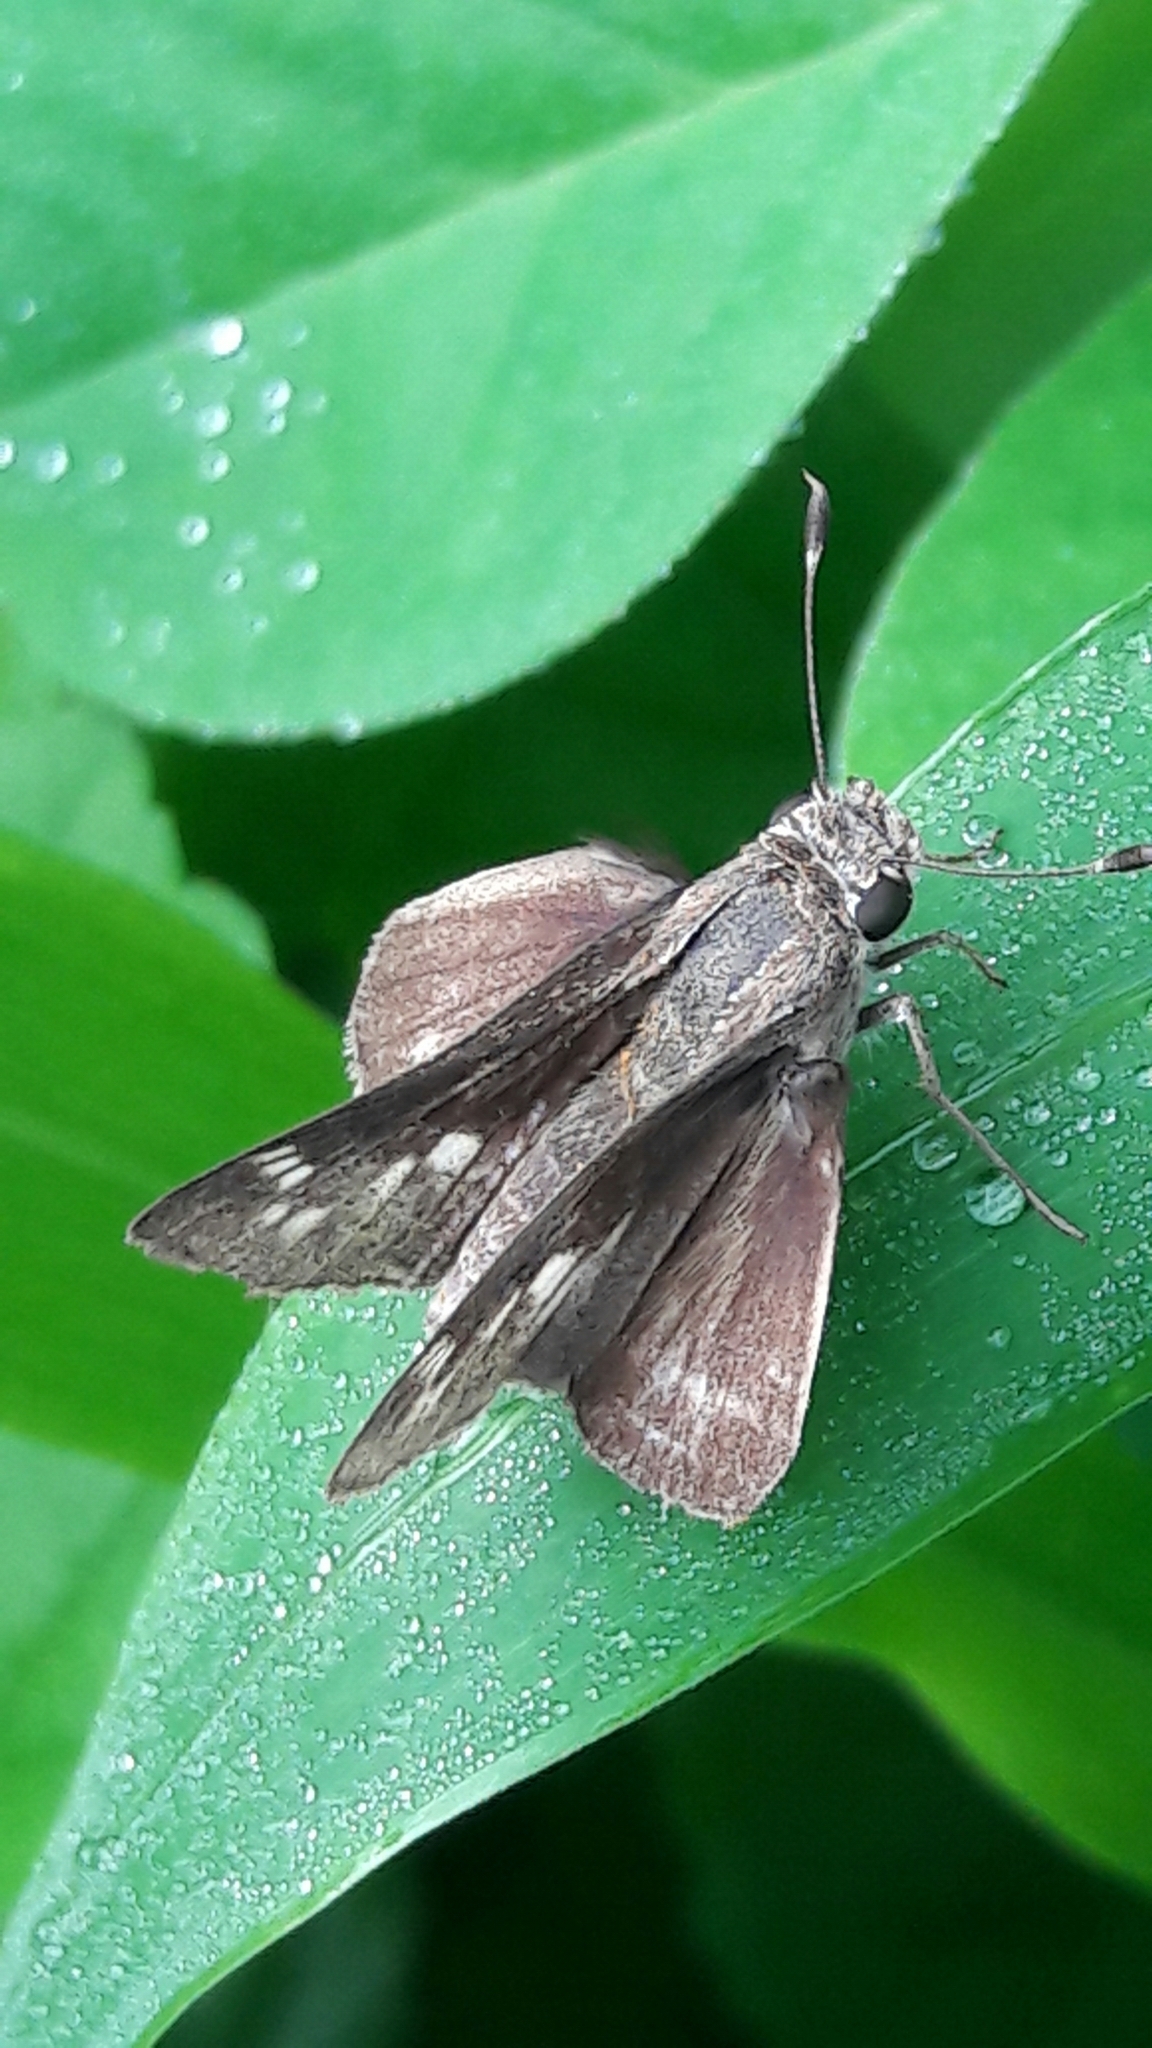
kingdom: Animalia
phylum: Arthropoda
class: Insecta
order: Lepidoptera
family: Hesperiidae
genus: Pompeius
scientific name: Pompeius pompeius
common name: Pompeius skipper
